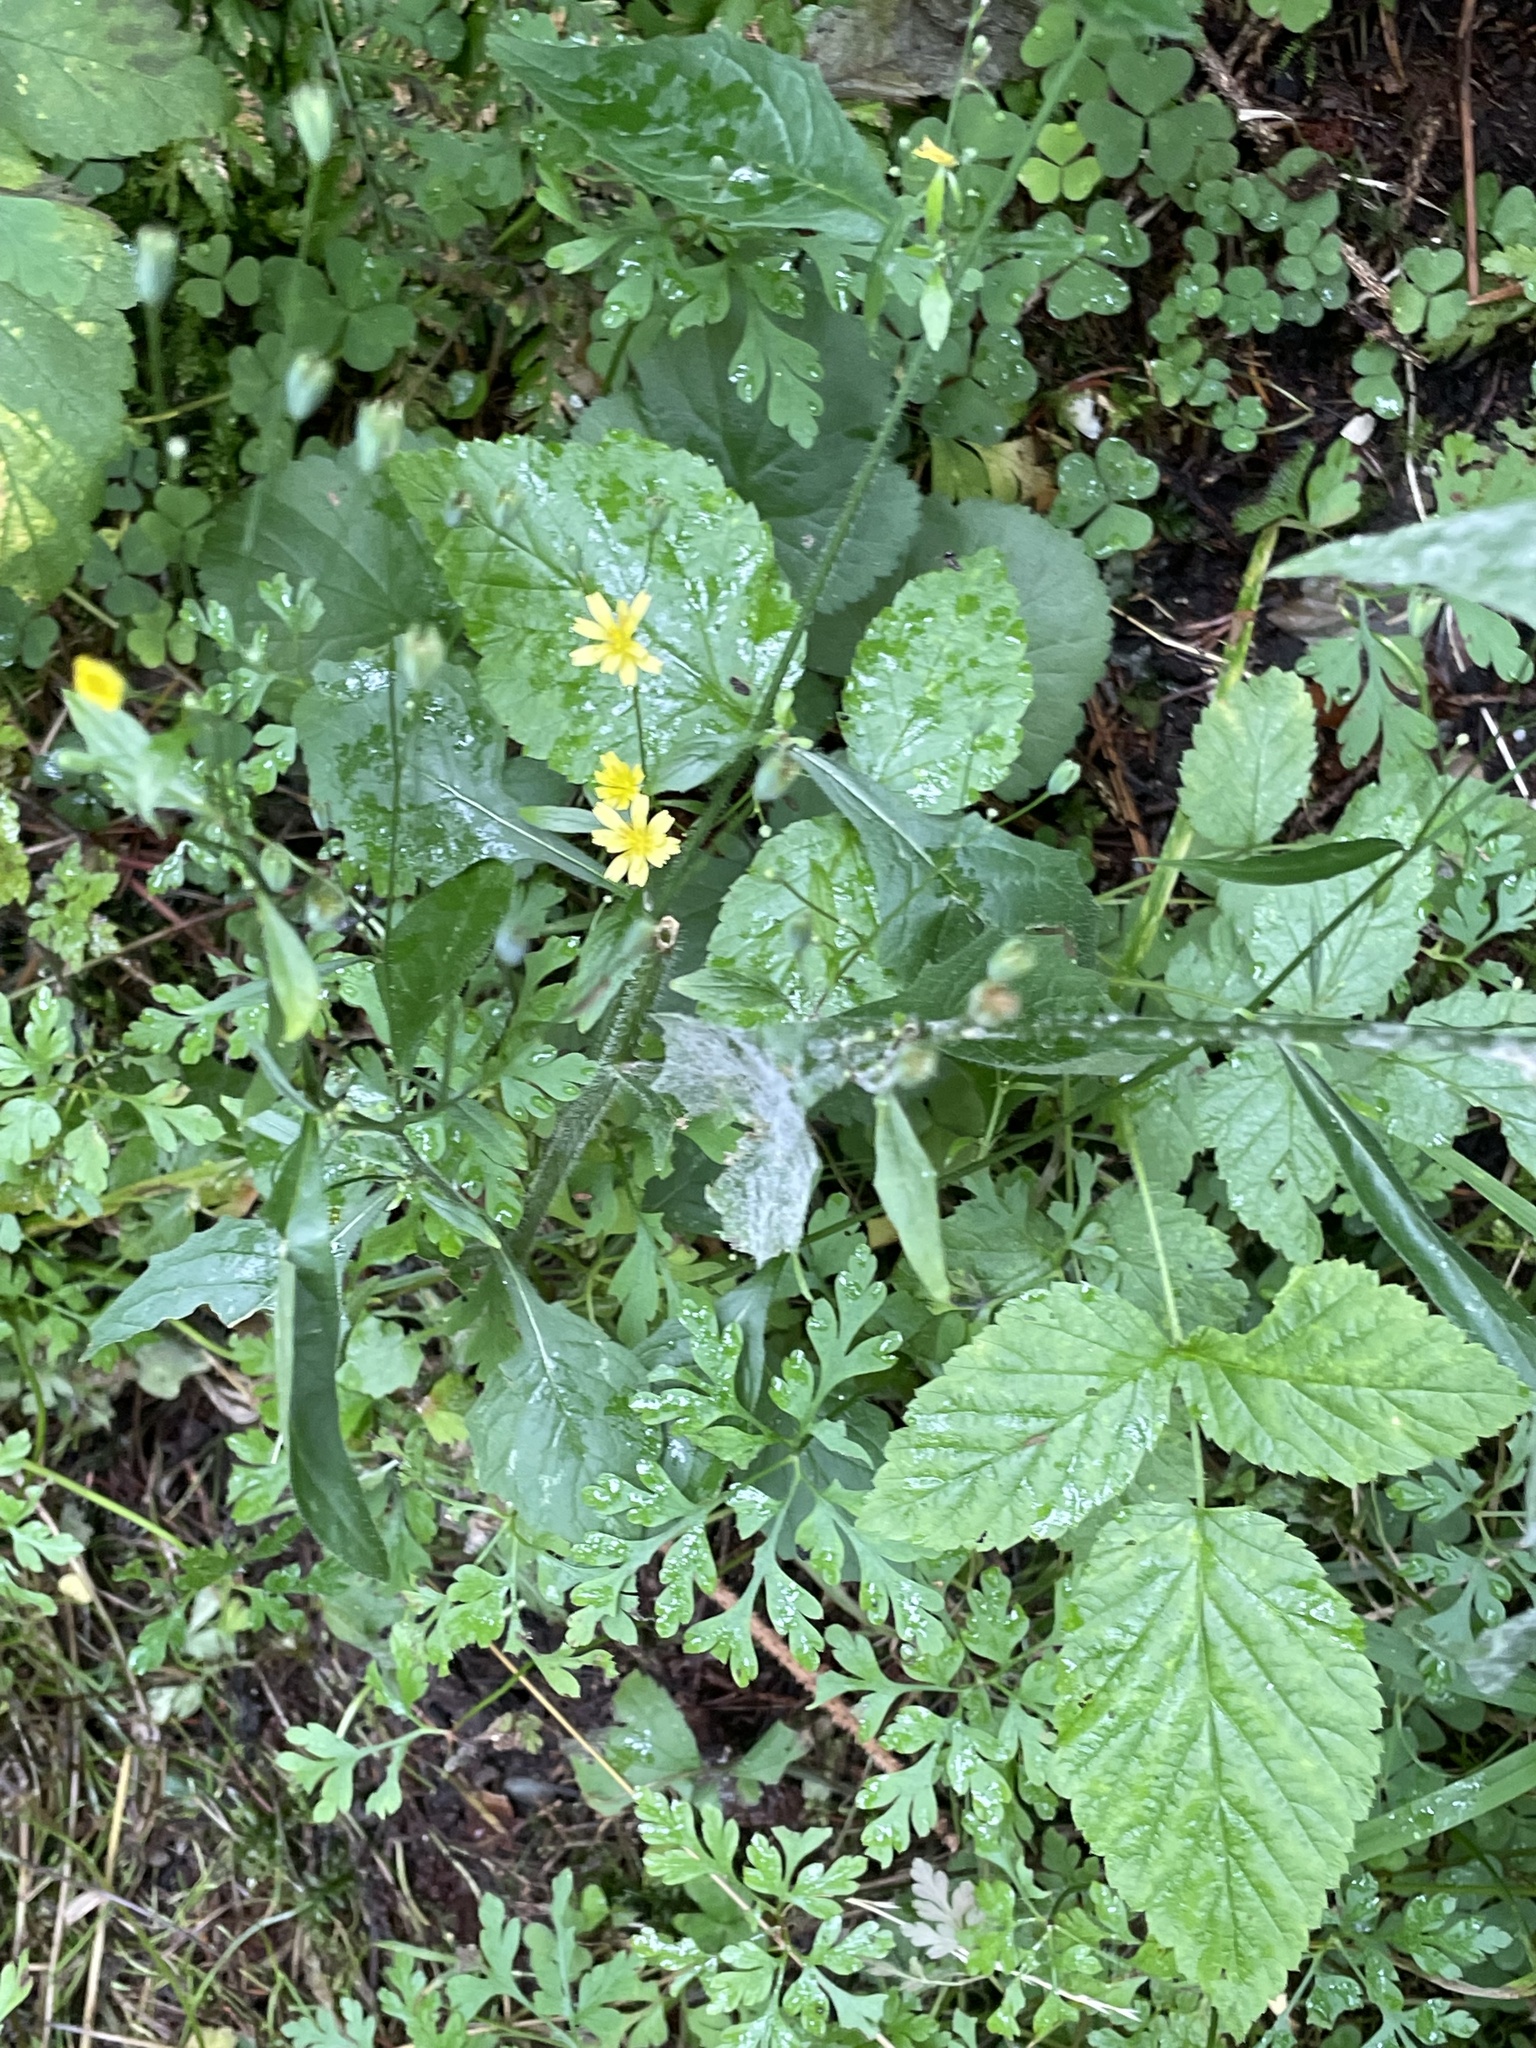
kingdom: Plantae
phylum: Tracheophyta
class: Magnoliopsida
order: Asterales
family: Asteraceae
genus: Lapsana
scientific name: Lapsana communis
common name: Nipplewort
